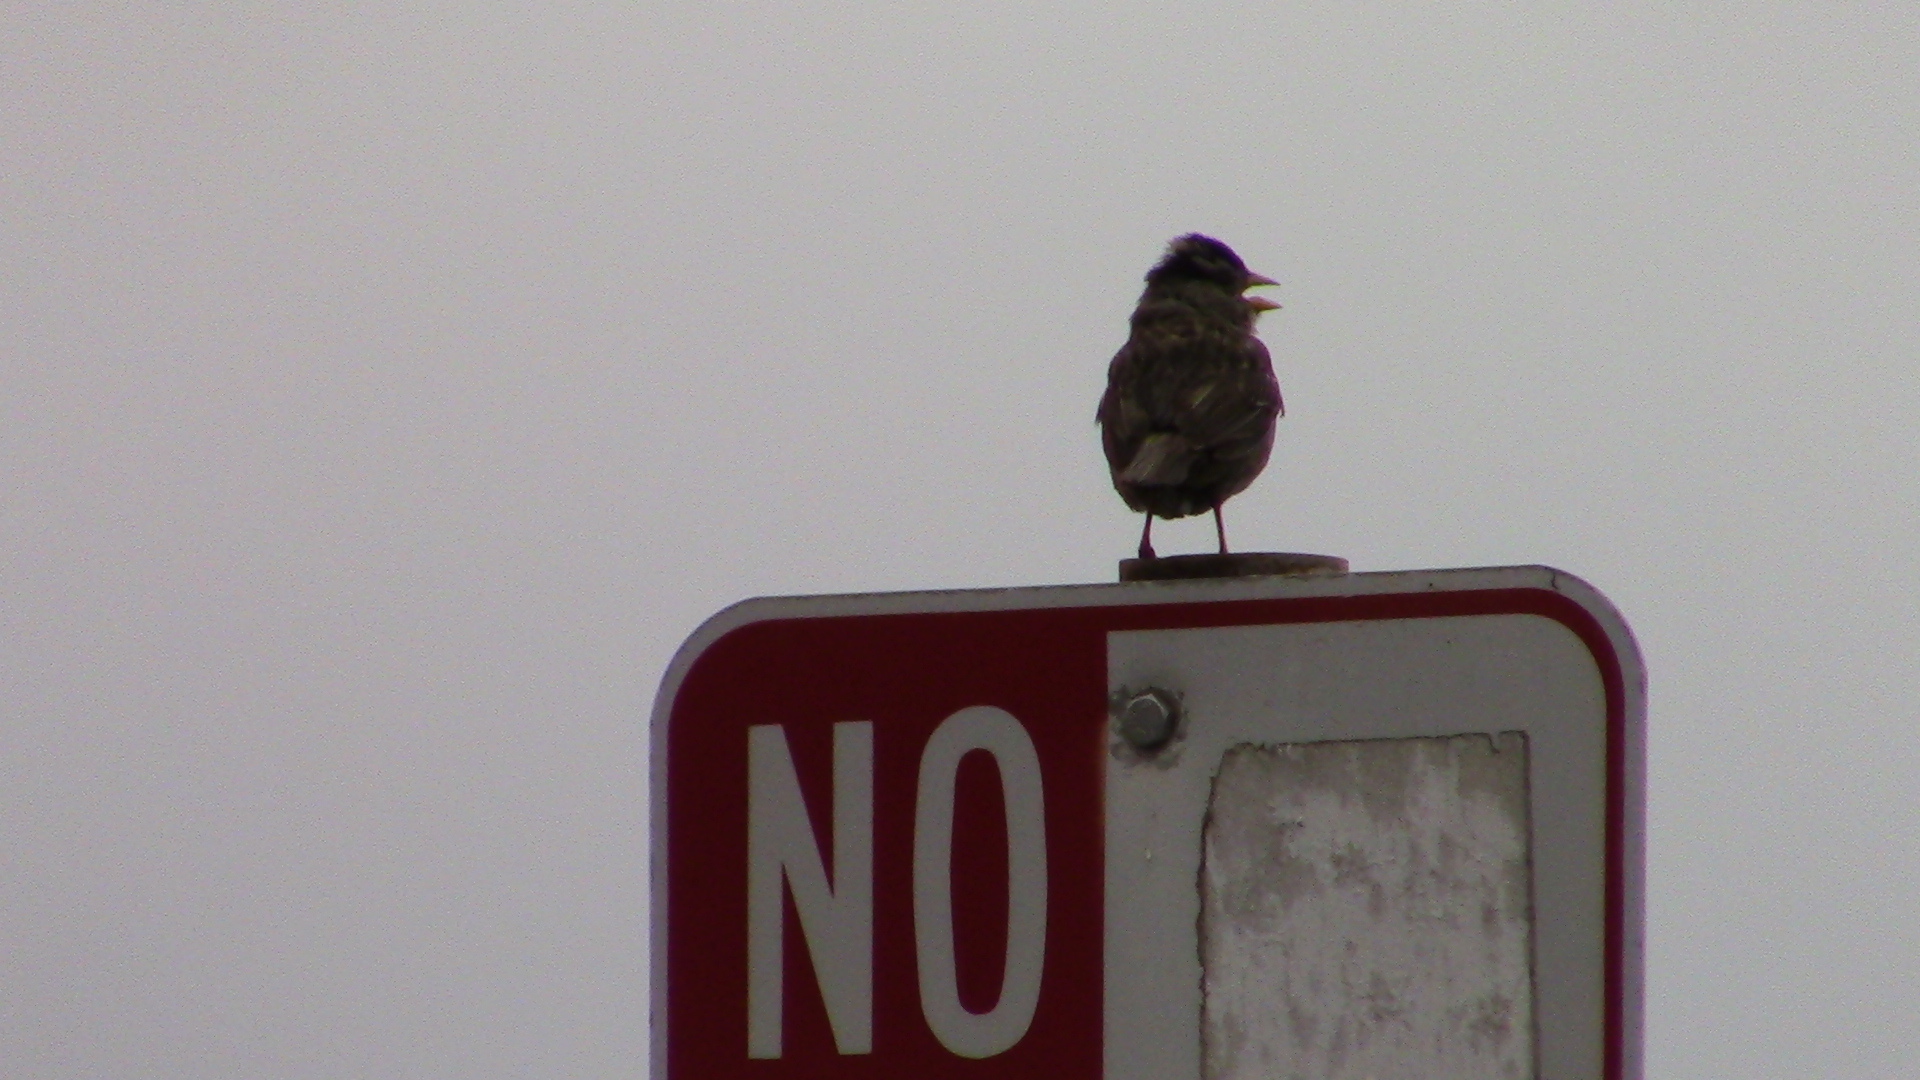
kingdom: Animalia
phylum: Chordata
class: Aves
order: Passeriformes
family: Passerellidae
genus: Zonotrichia
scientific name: Zonotrichia leucophrys
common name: White-crowned sparrow
